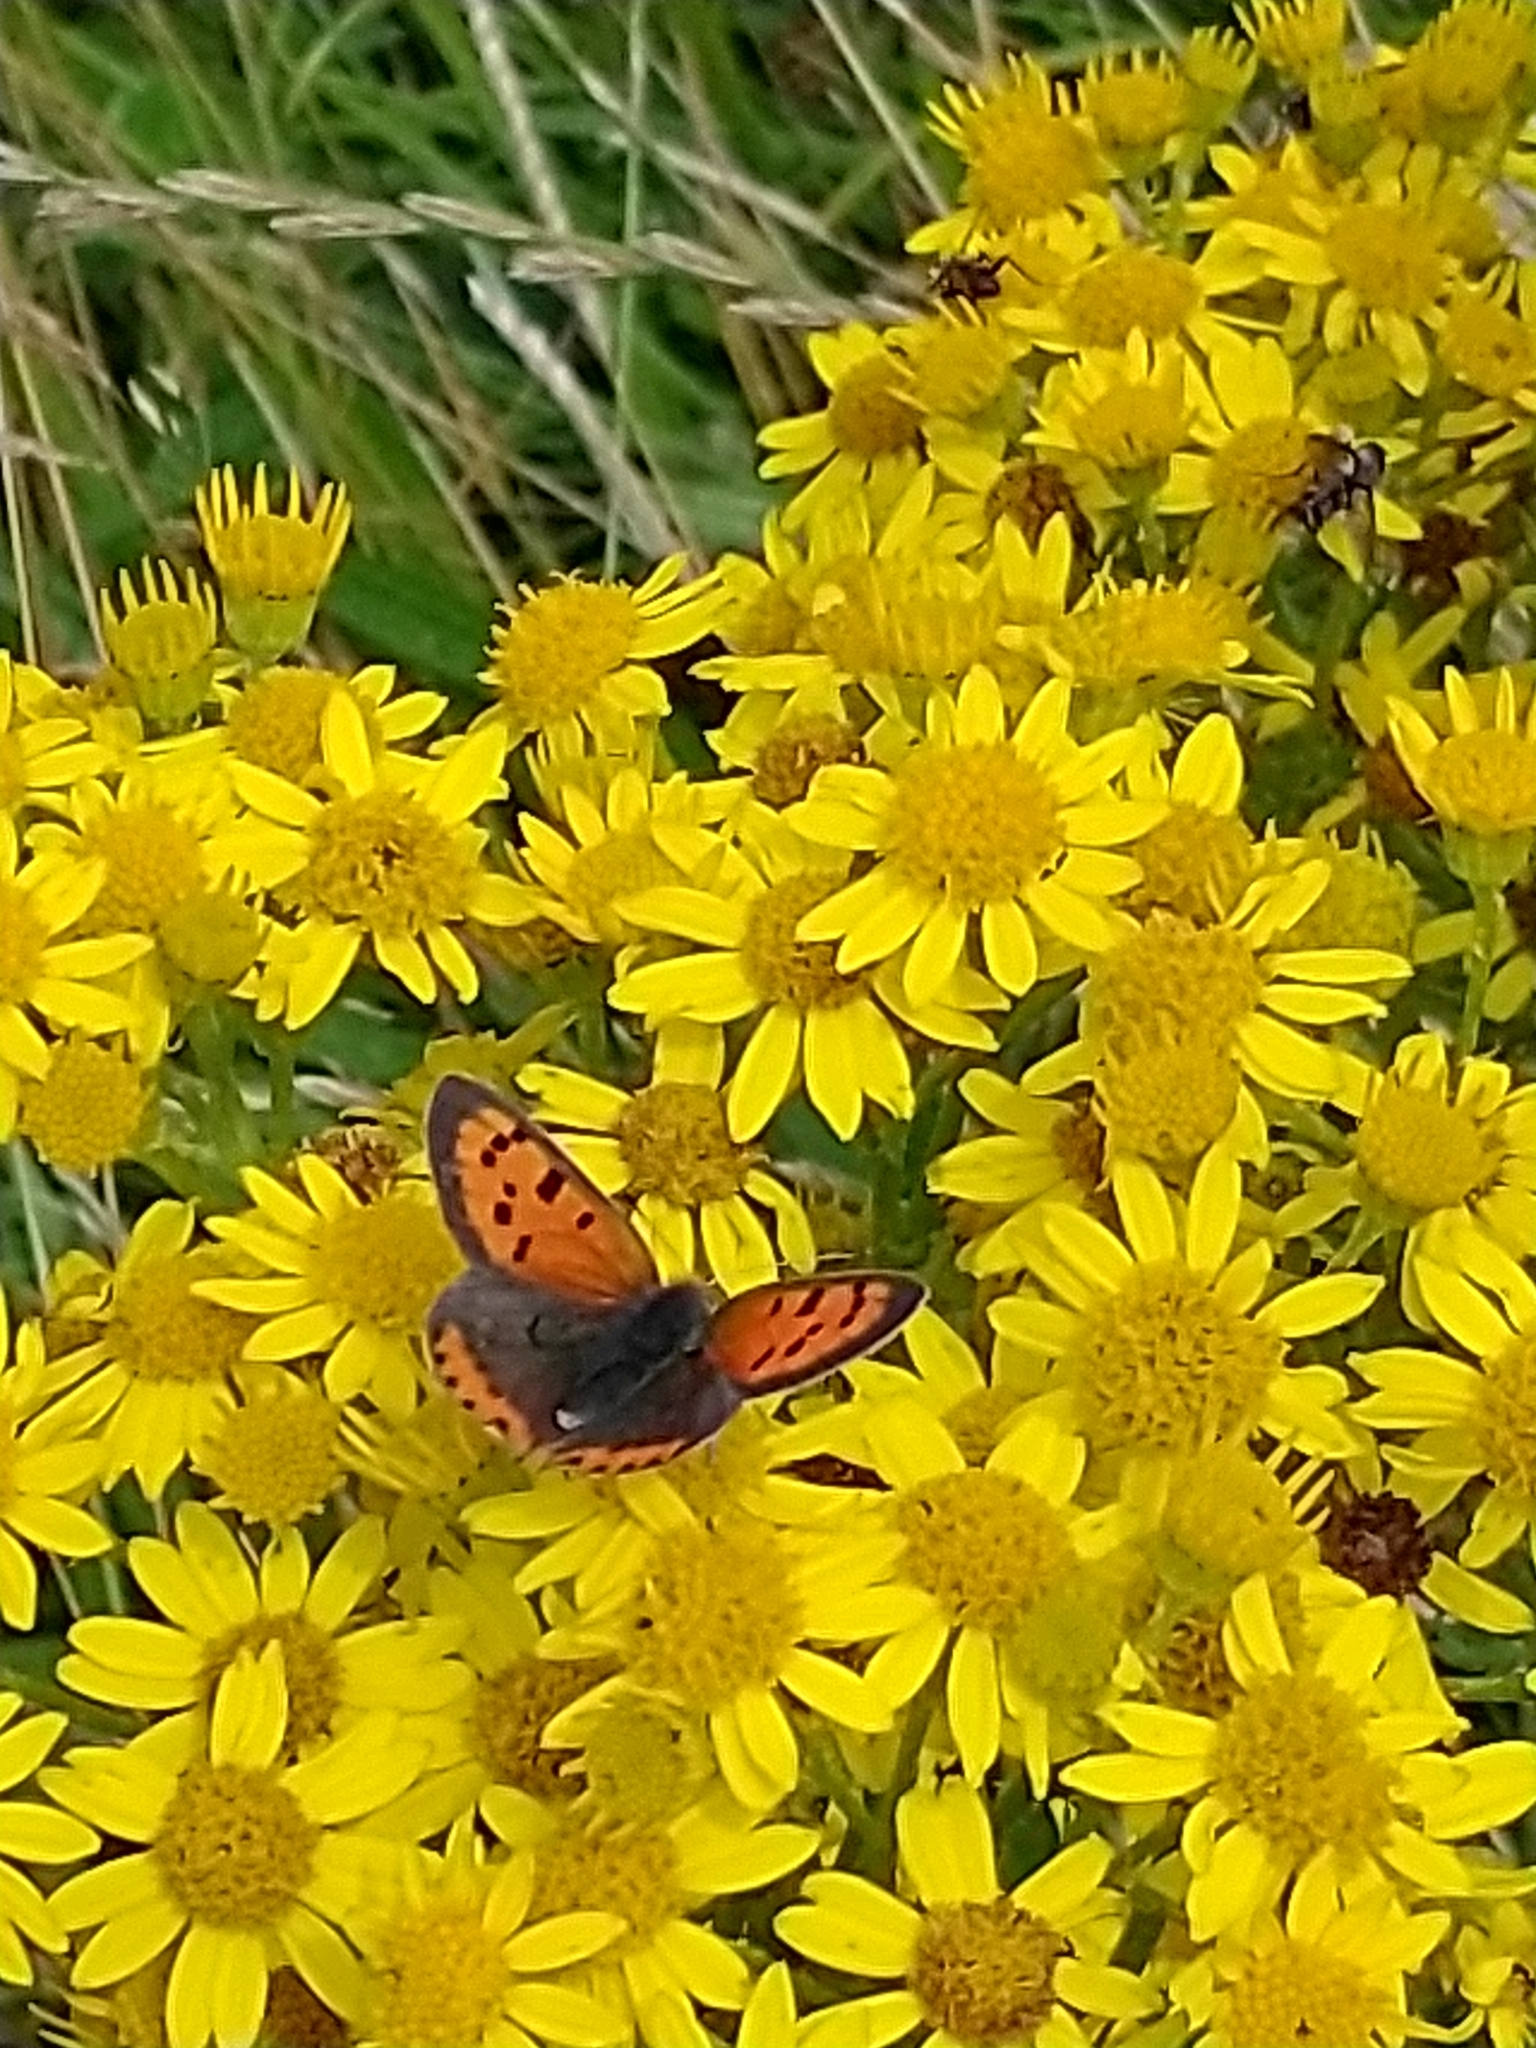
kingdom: Animalia
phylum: Arthropoda
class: Insecta
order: Lepidoptera
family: Lycaenidae
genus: Lycaena
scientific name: Lycaena phlaeas
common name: Small copper
